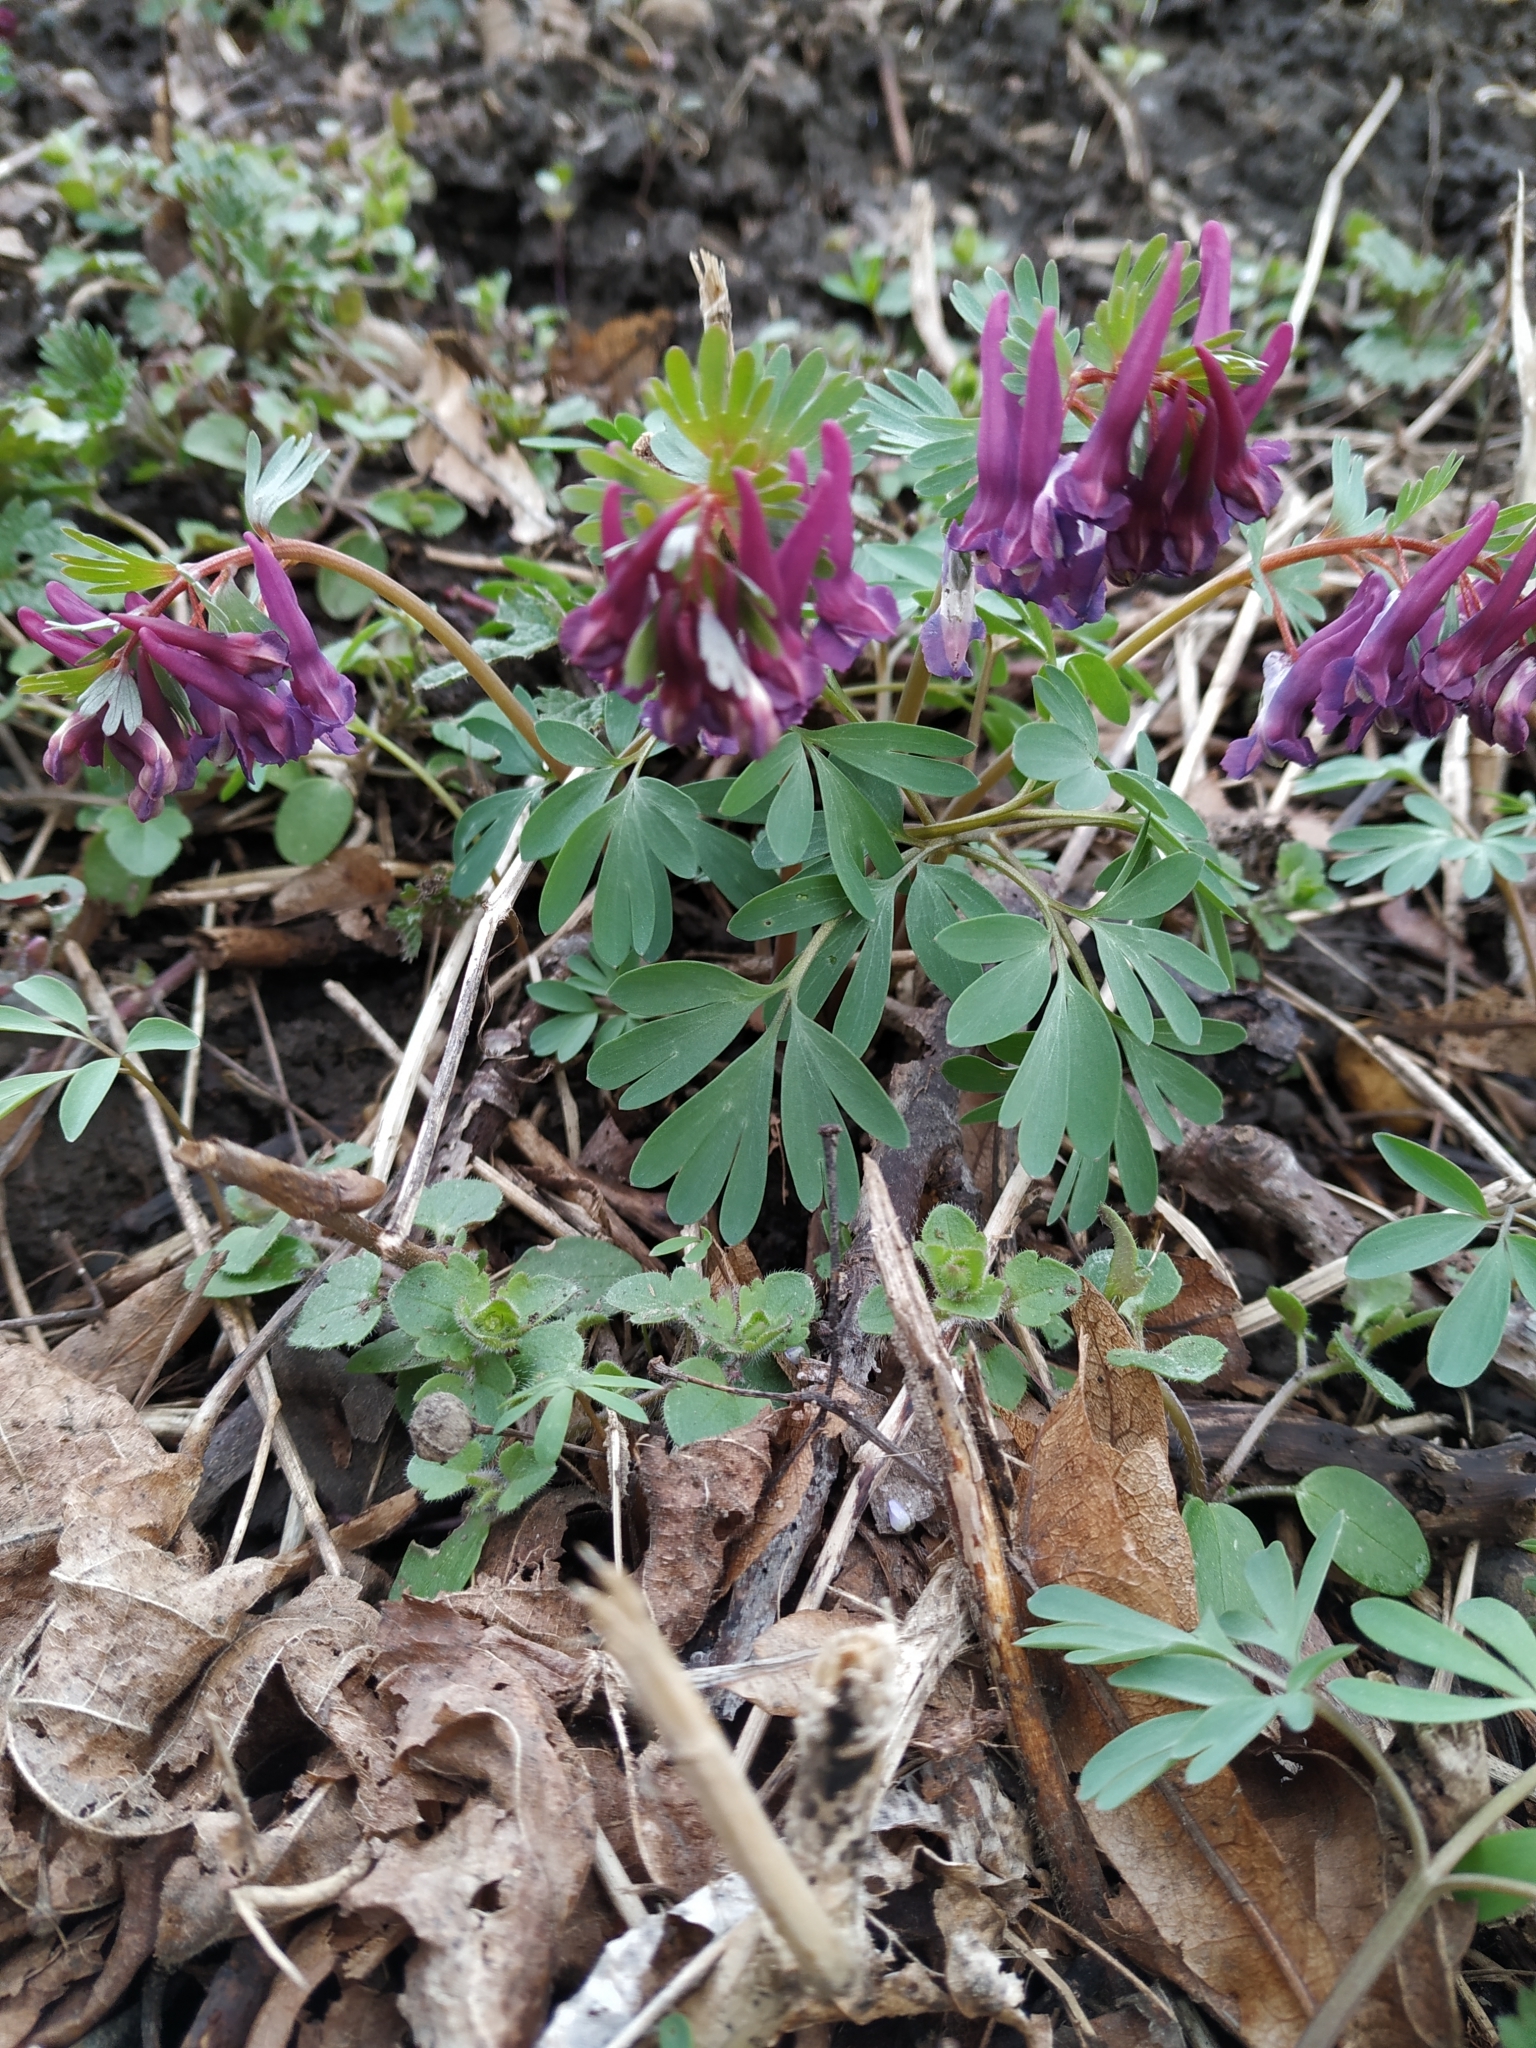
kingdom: Plantae
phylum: Tracheophyta
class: Magnoliopsida
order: Ranunculales
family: Papaveraceae
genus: Corydalis
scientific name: Corydalis solida
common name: Bird-in-a-bush
